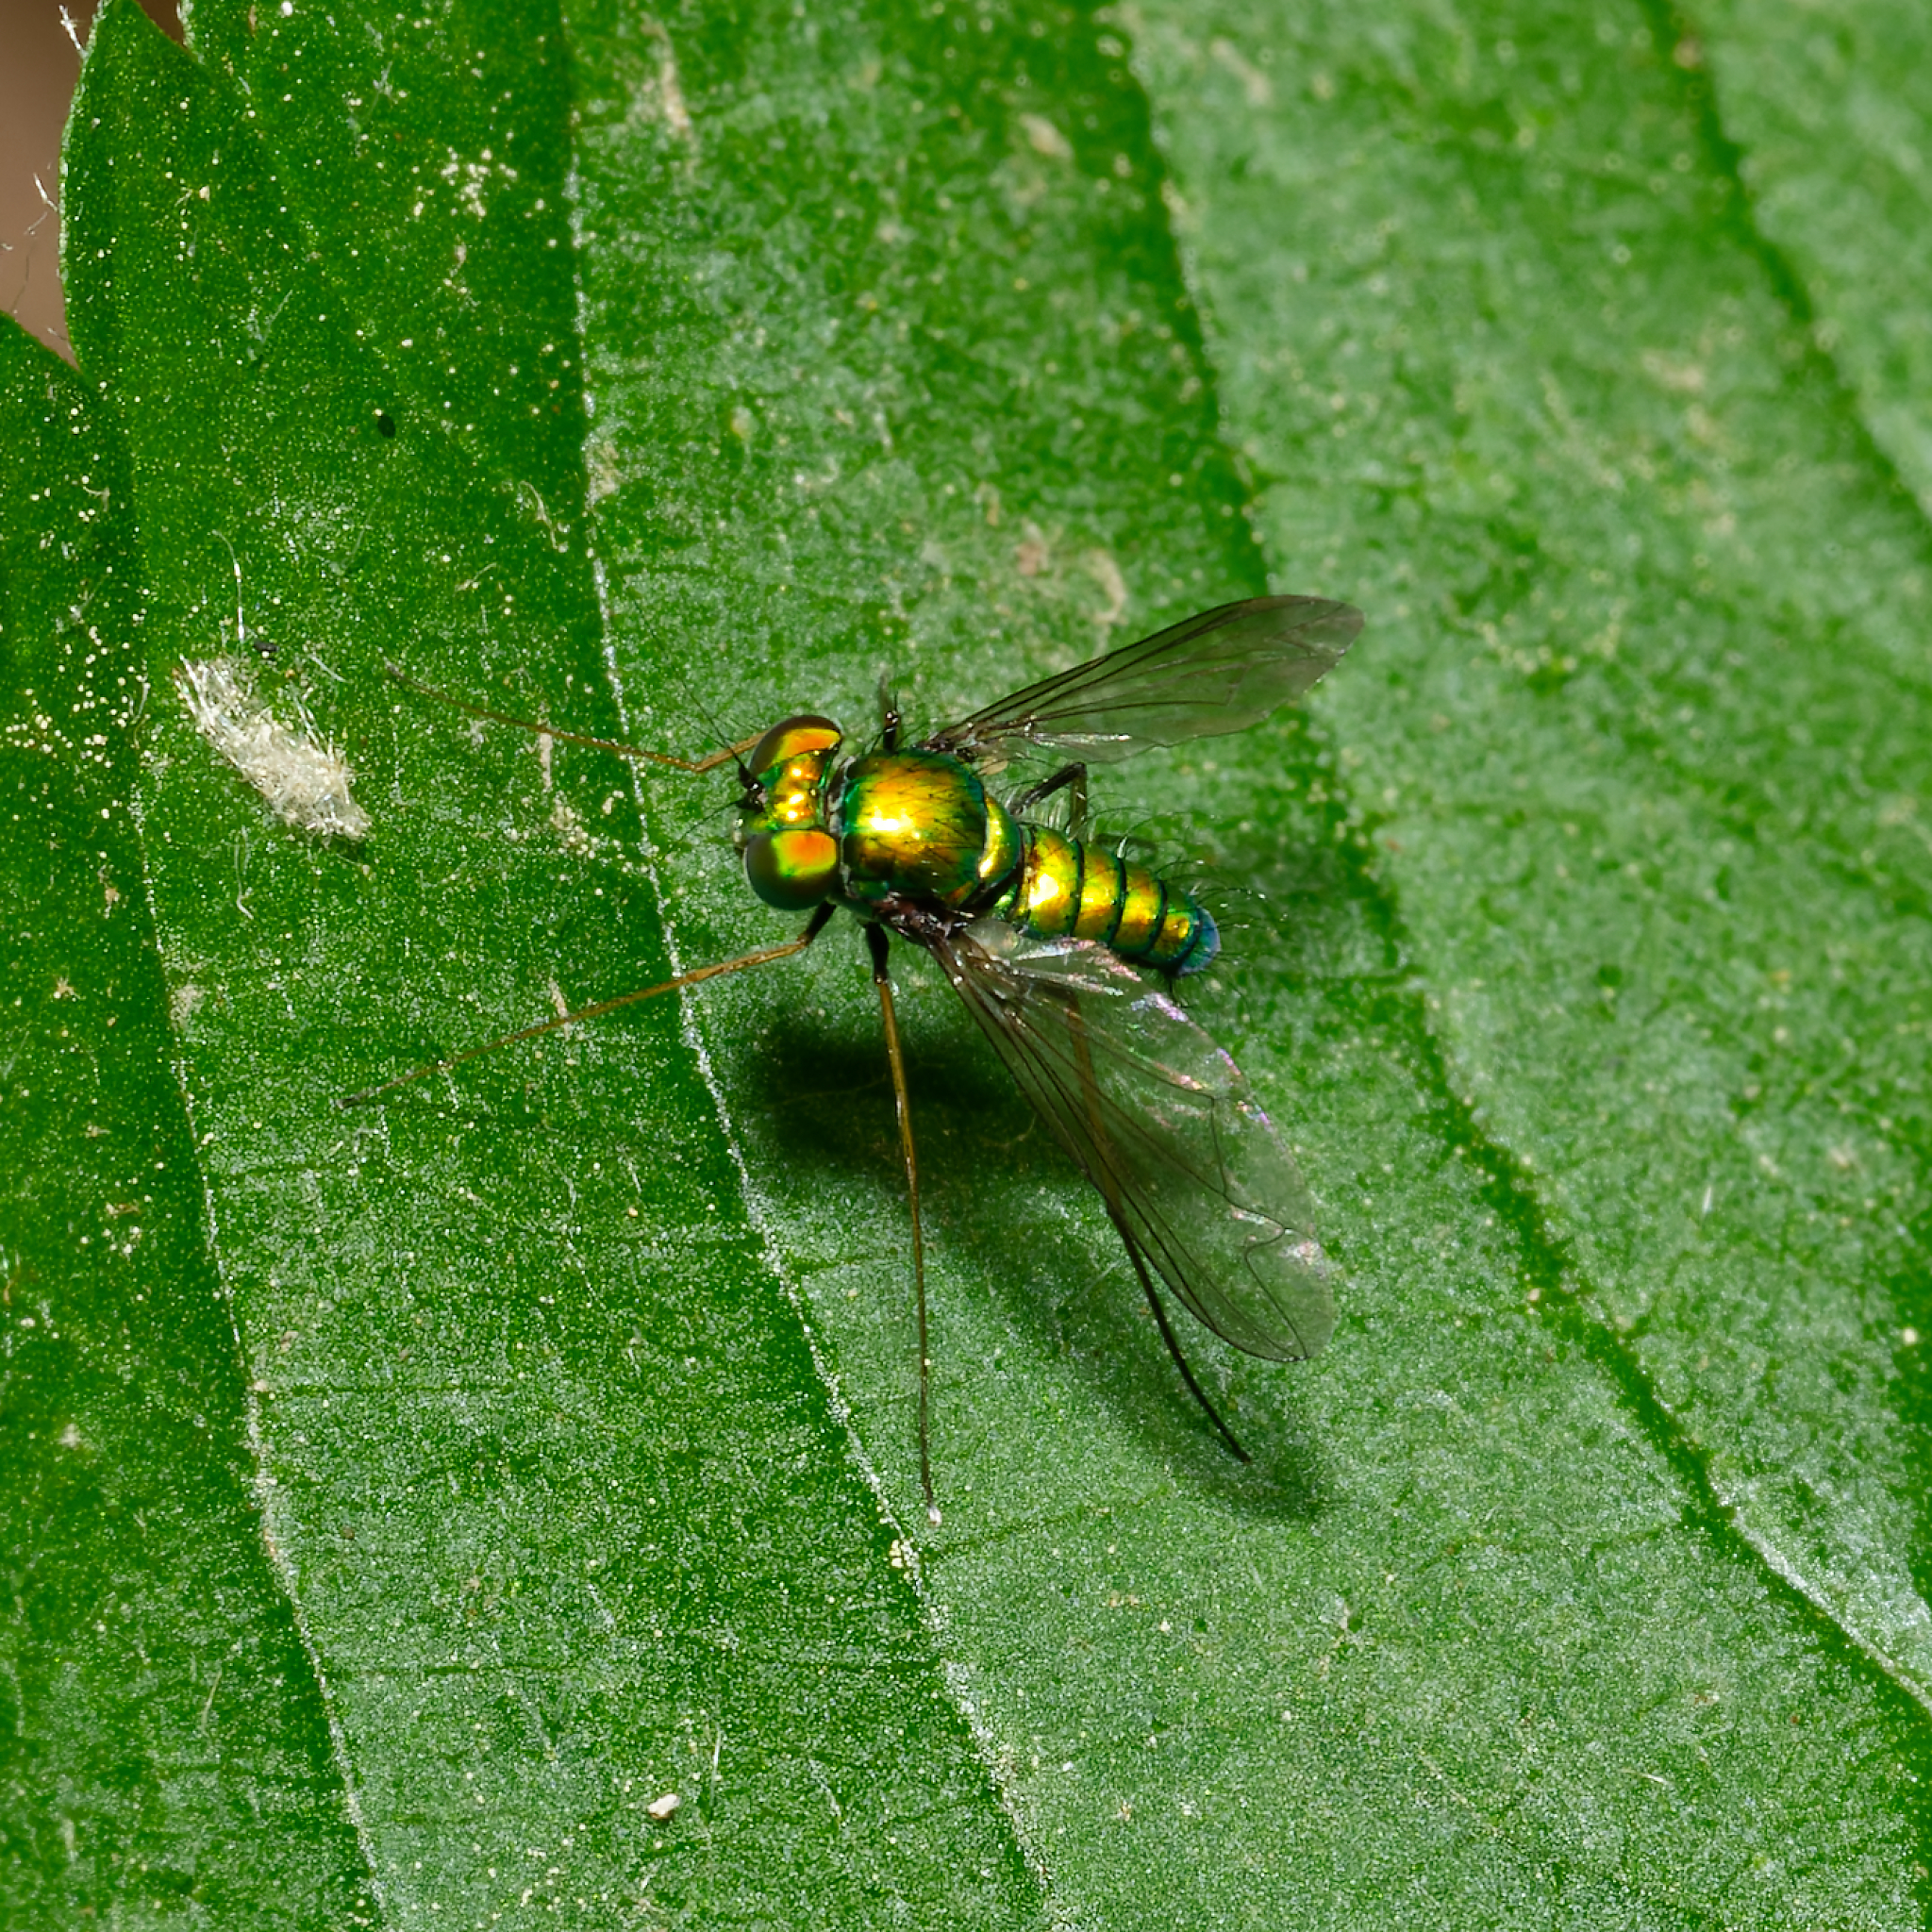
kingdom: Animalia
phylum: Arthropoda
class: Insecta
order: Diptera
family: Dolichopodidae
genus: Condylostylus
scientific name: Condylostylus comatus
